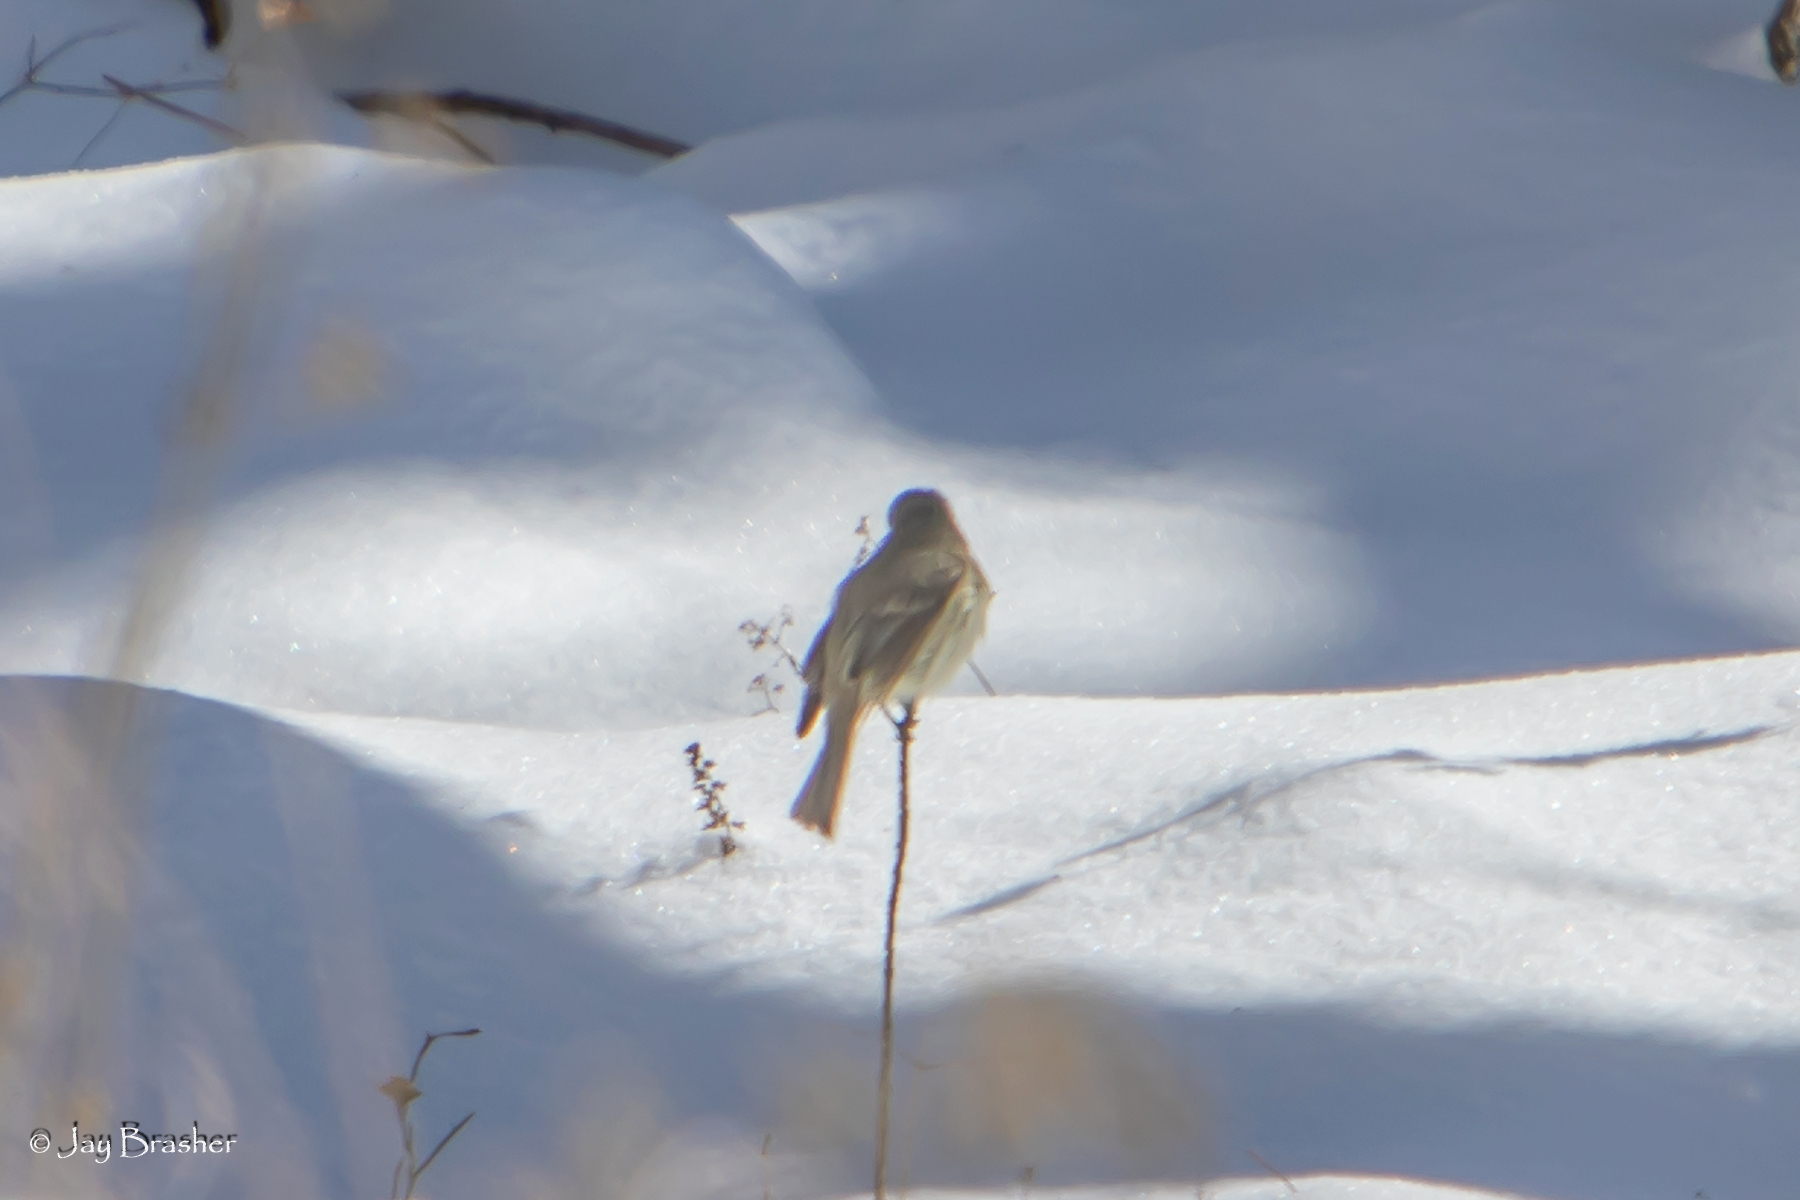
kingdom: Animalia
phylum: Chordata
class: Aves
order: Passeriformes
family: Tyrannidae
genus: Sayornis
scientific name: Sayornis phoebe
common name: Eastern phoebe
